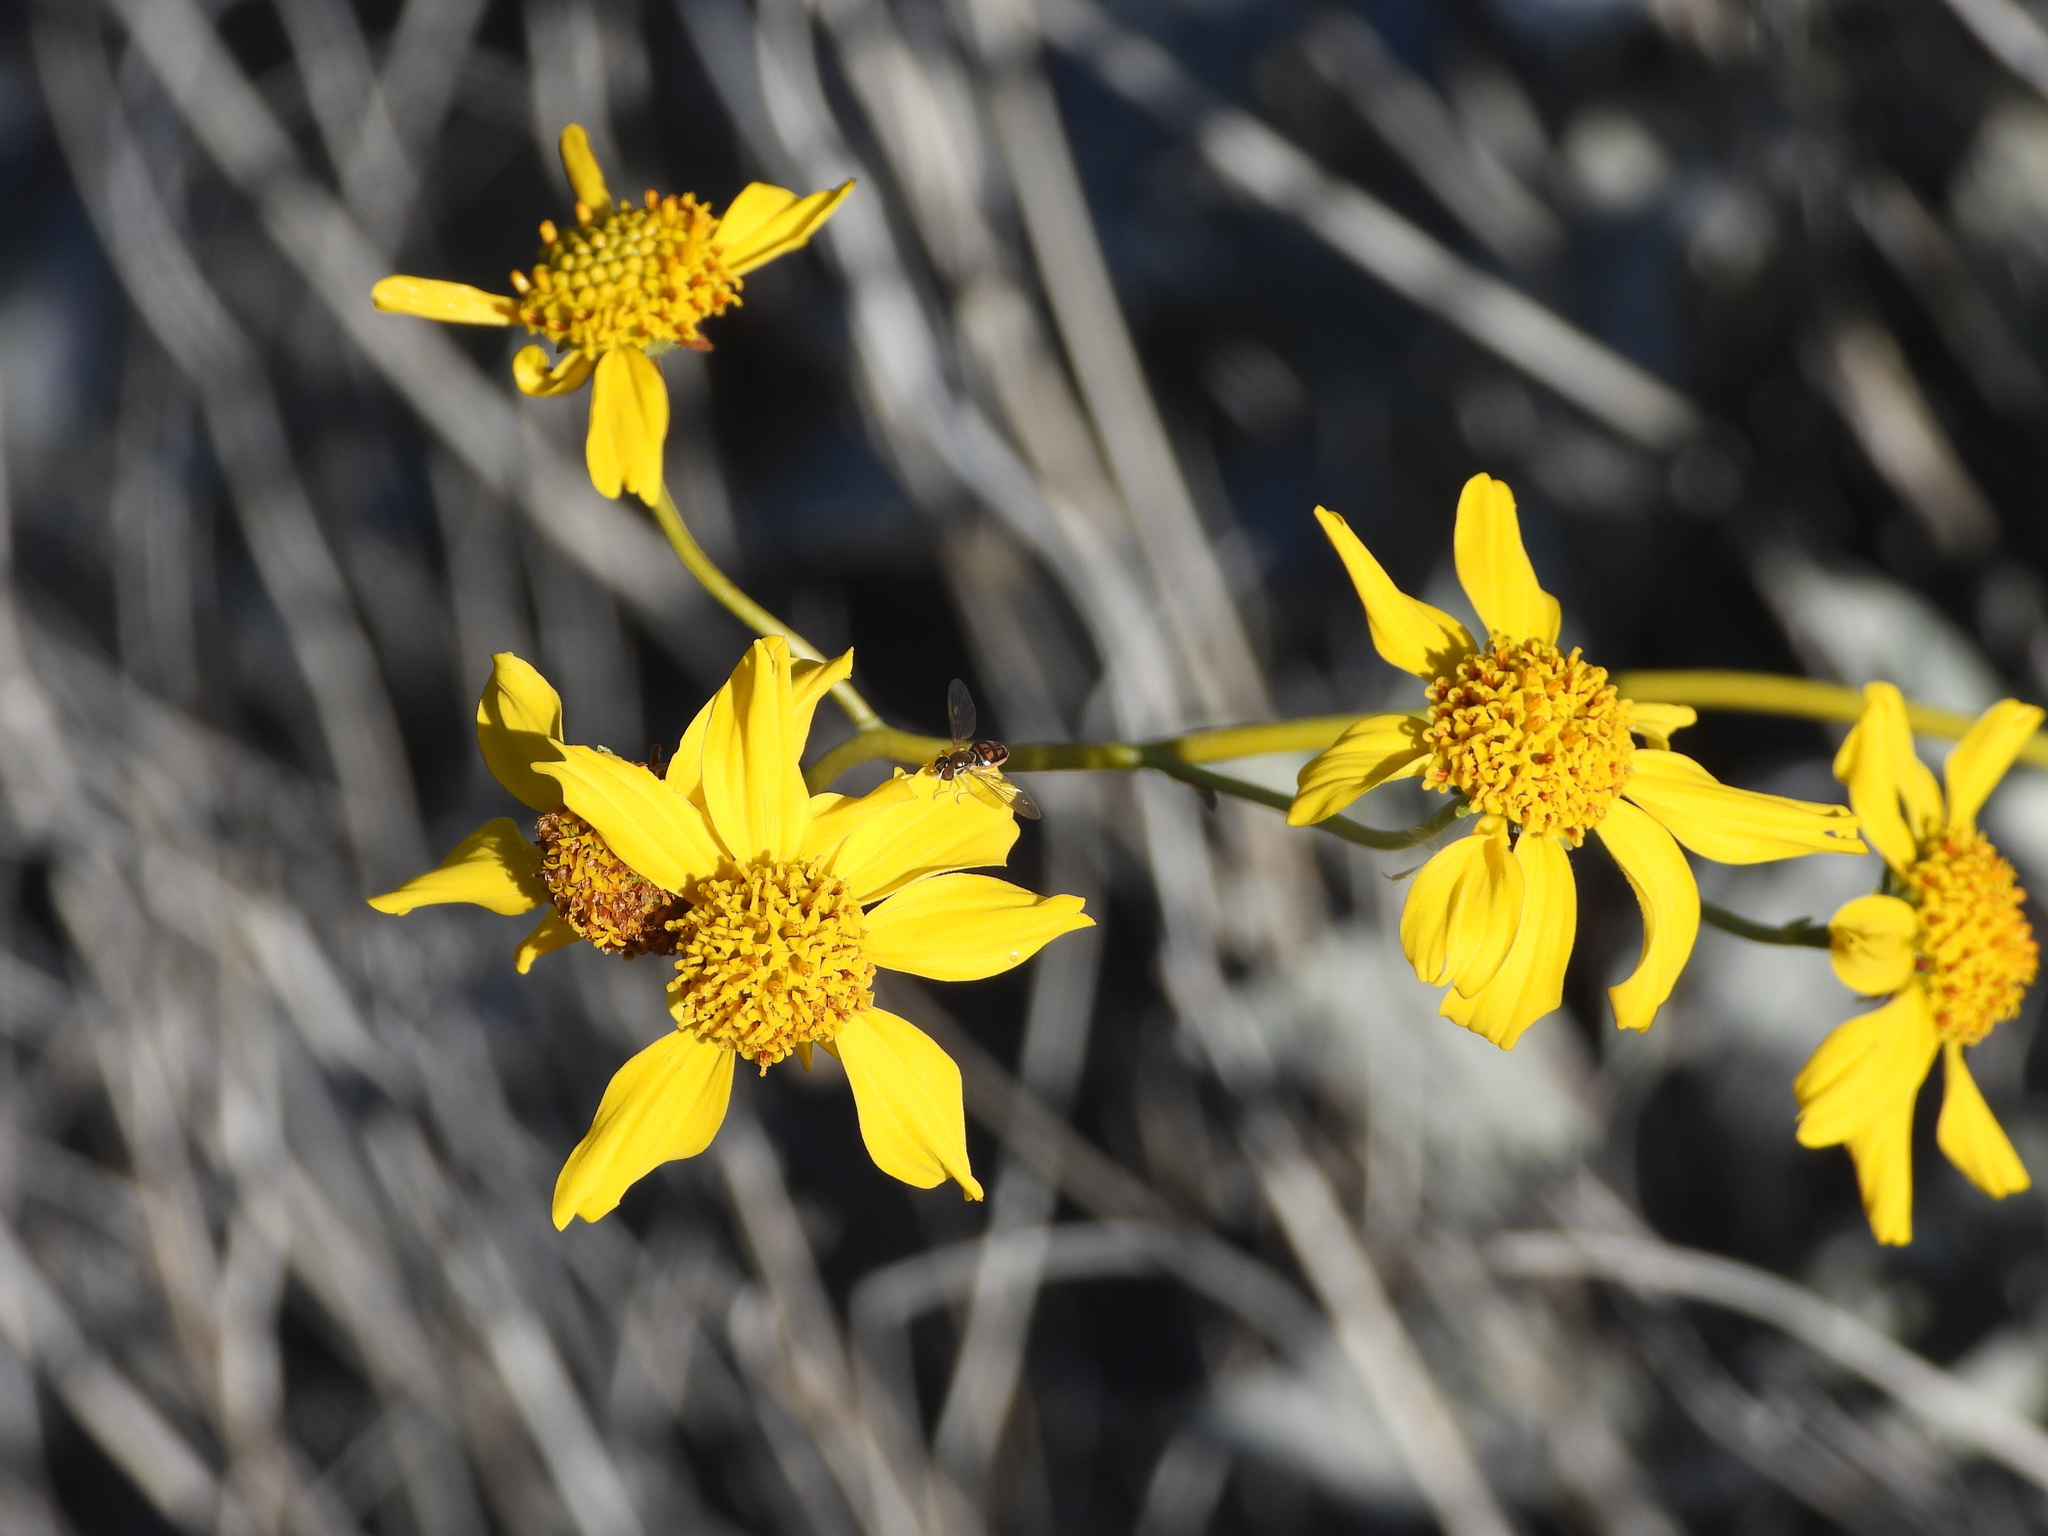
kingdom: Animalia
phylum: Arthropoda
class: Insecta
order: Diptera
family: Syrphidae
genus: Toxomerus
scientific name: Toxomerus marginatus
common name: Syrphid fly
